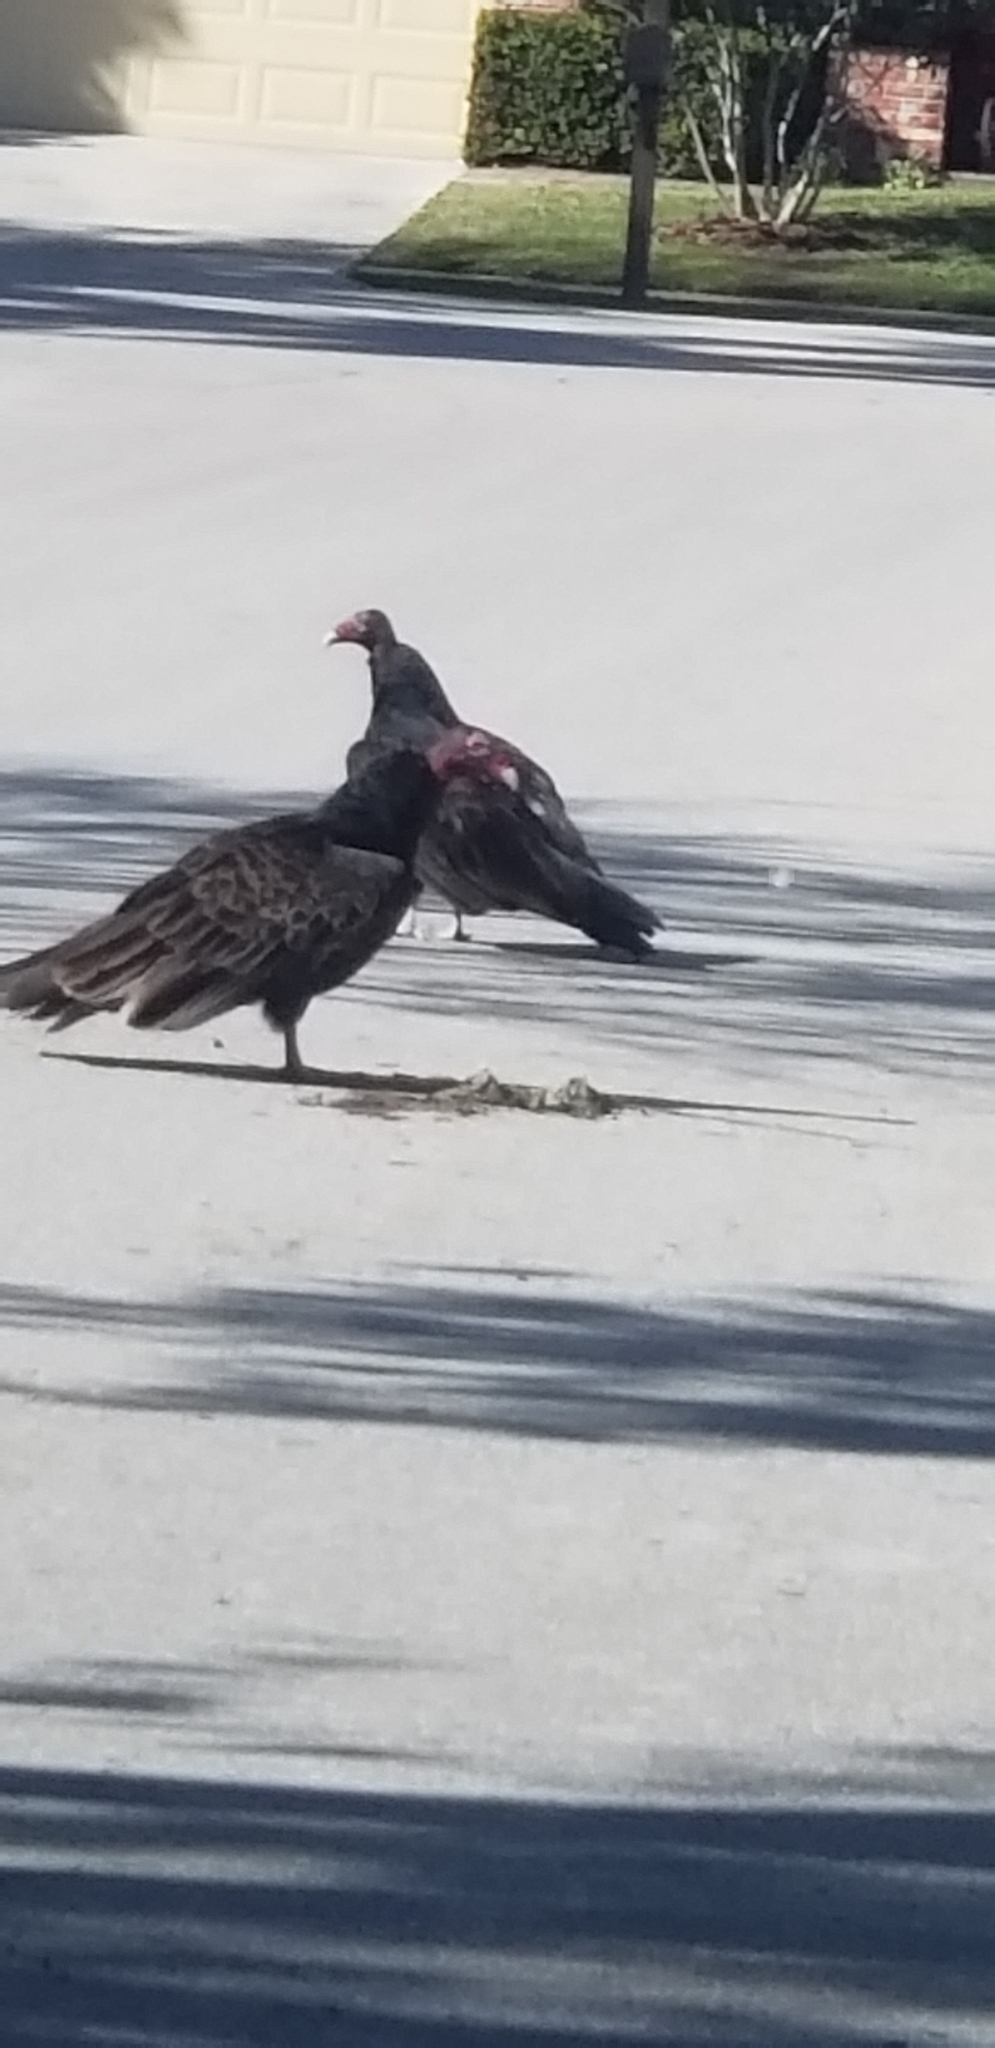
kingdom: Animalia
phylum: Chordata
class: Aves
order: Accipitriformes
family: Cathartidae
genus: Cathartes
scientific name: Cathartes aura
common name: Turkey vulture
